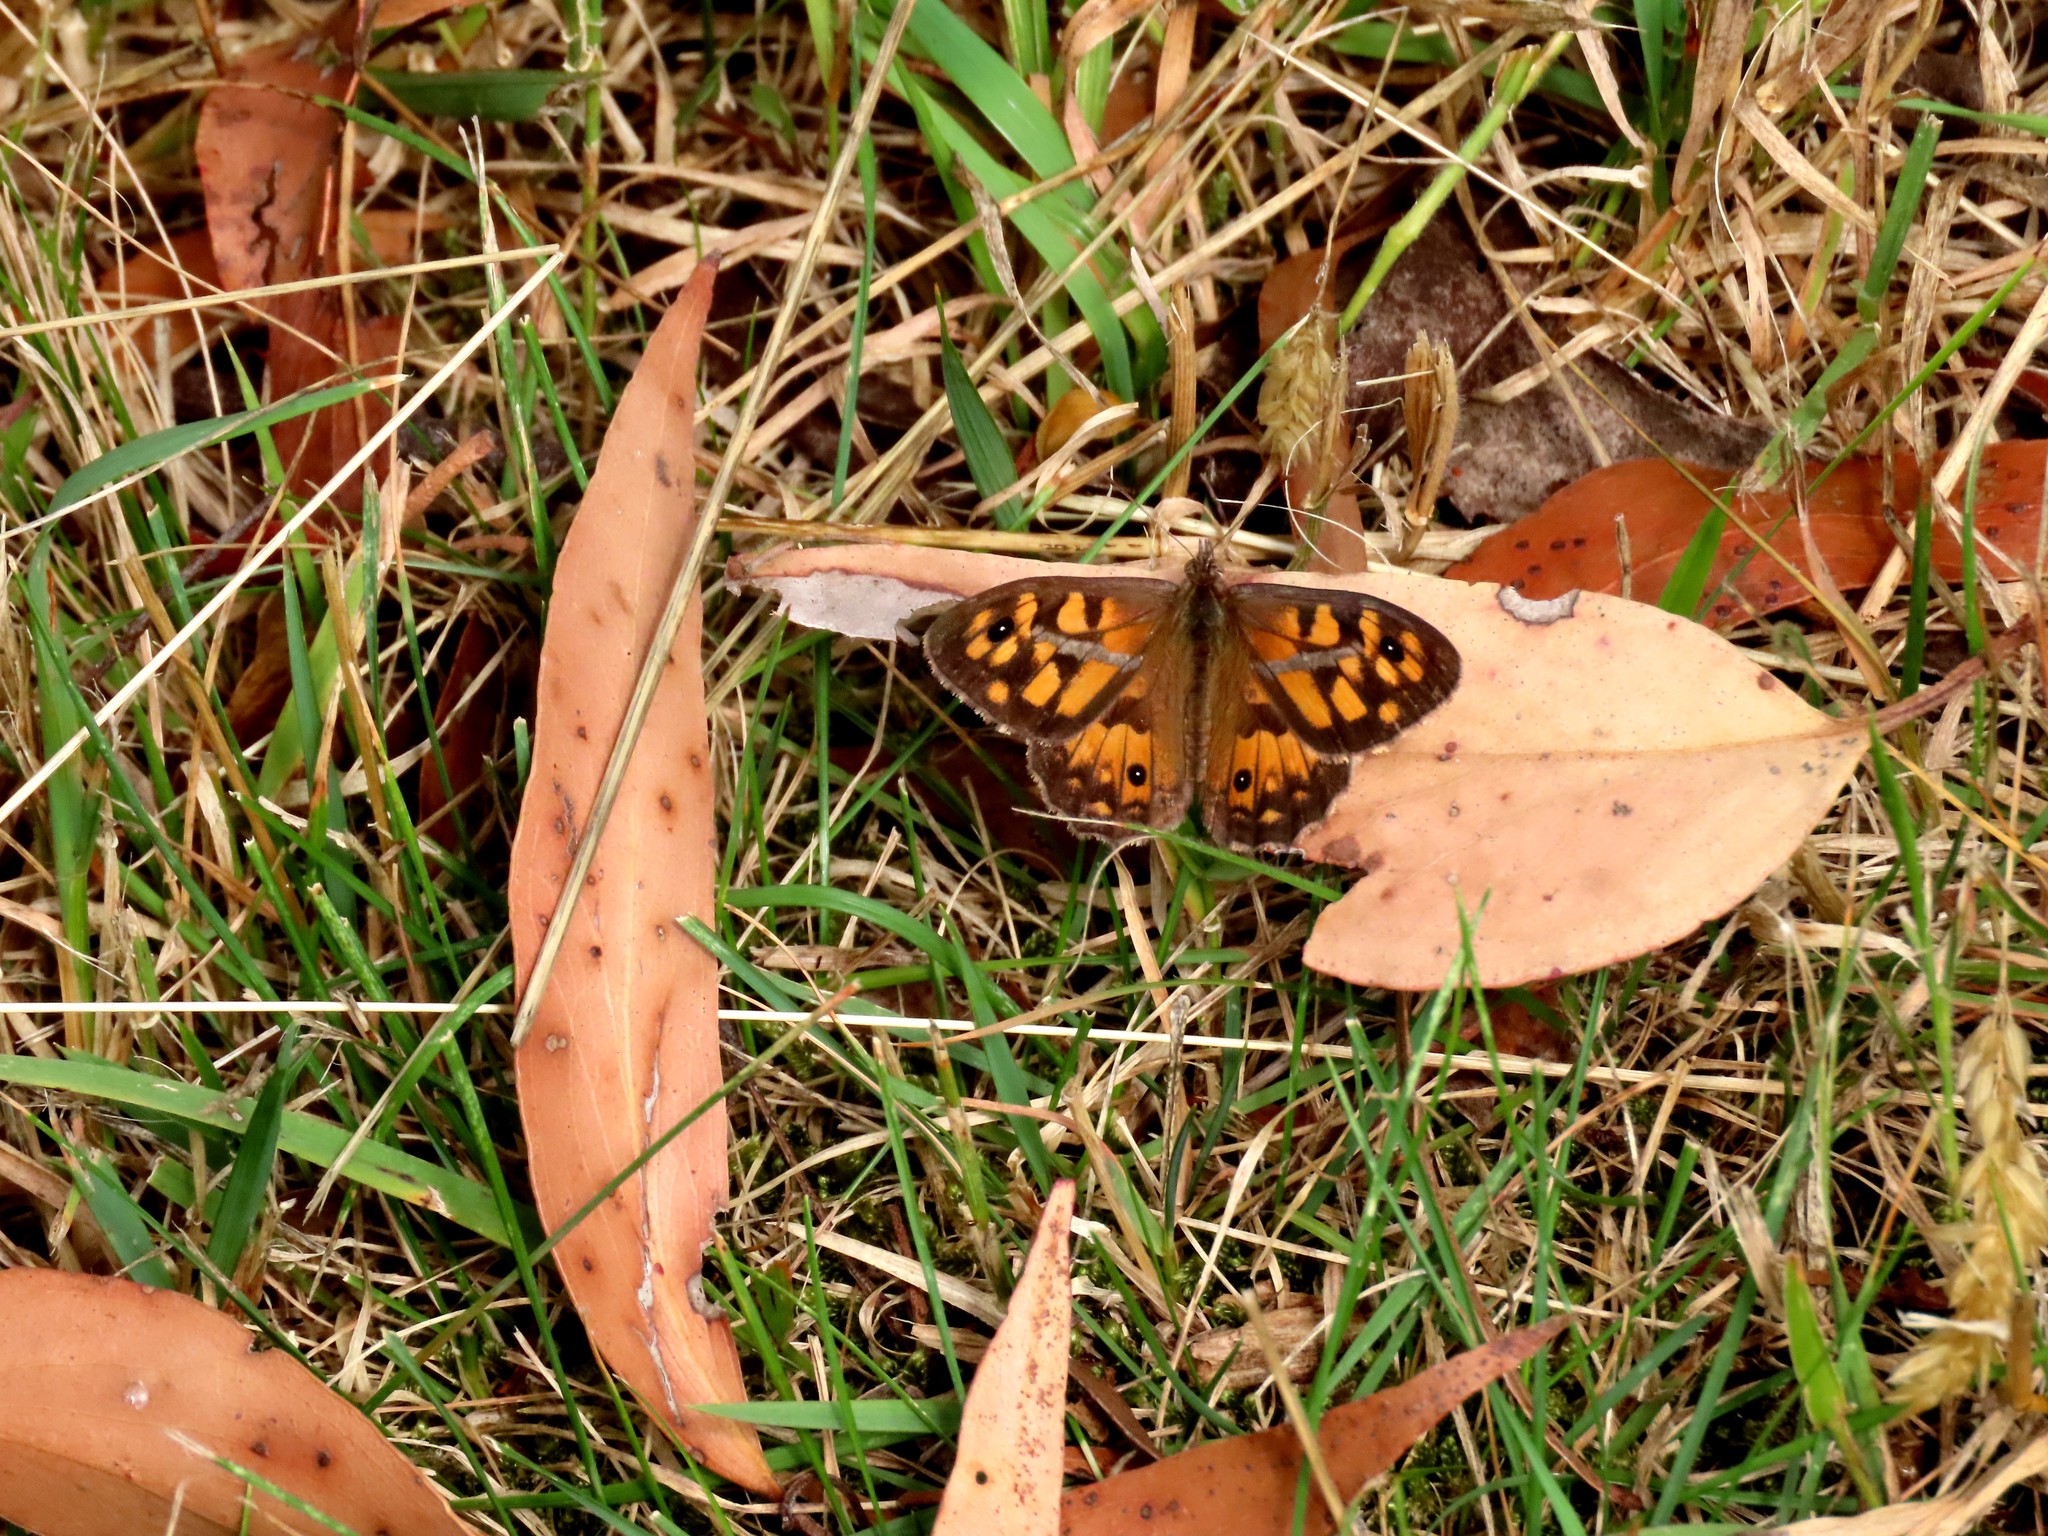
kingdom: Animalia
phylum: Arthropoda
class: Insecta
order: Lepidoptera
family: Nymphalidae
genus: Geitoneura
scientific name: Geitoneura klugii
